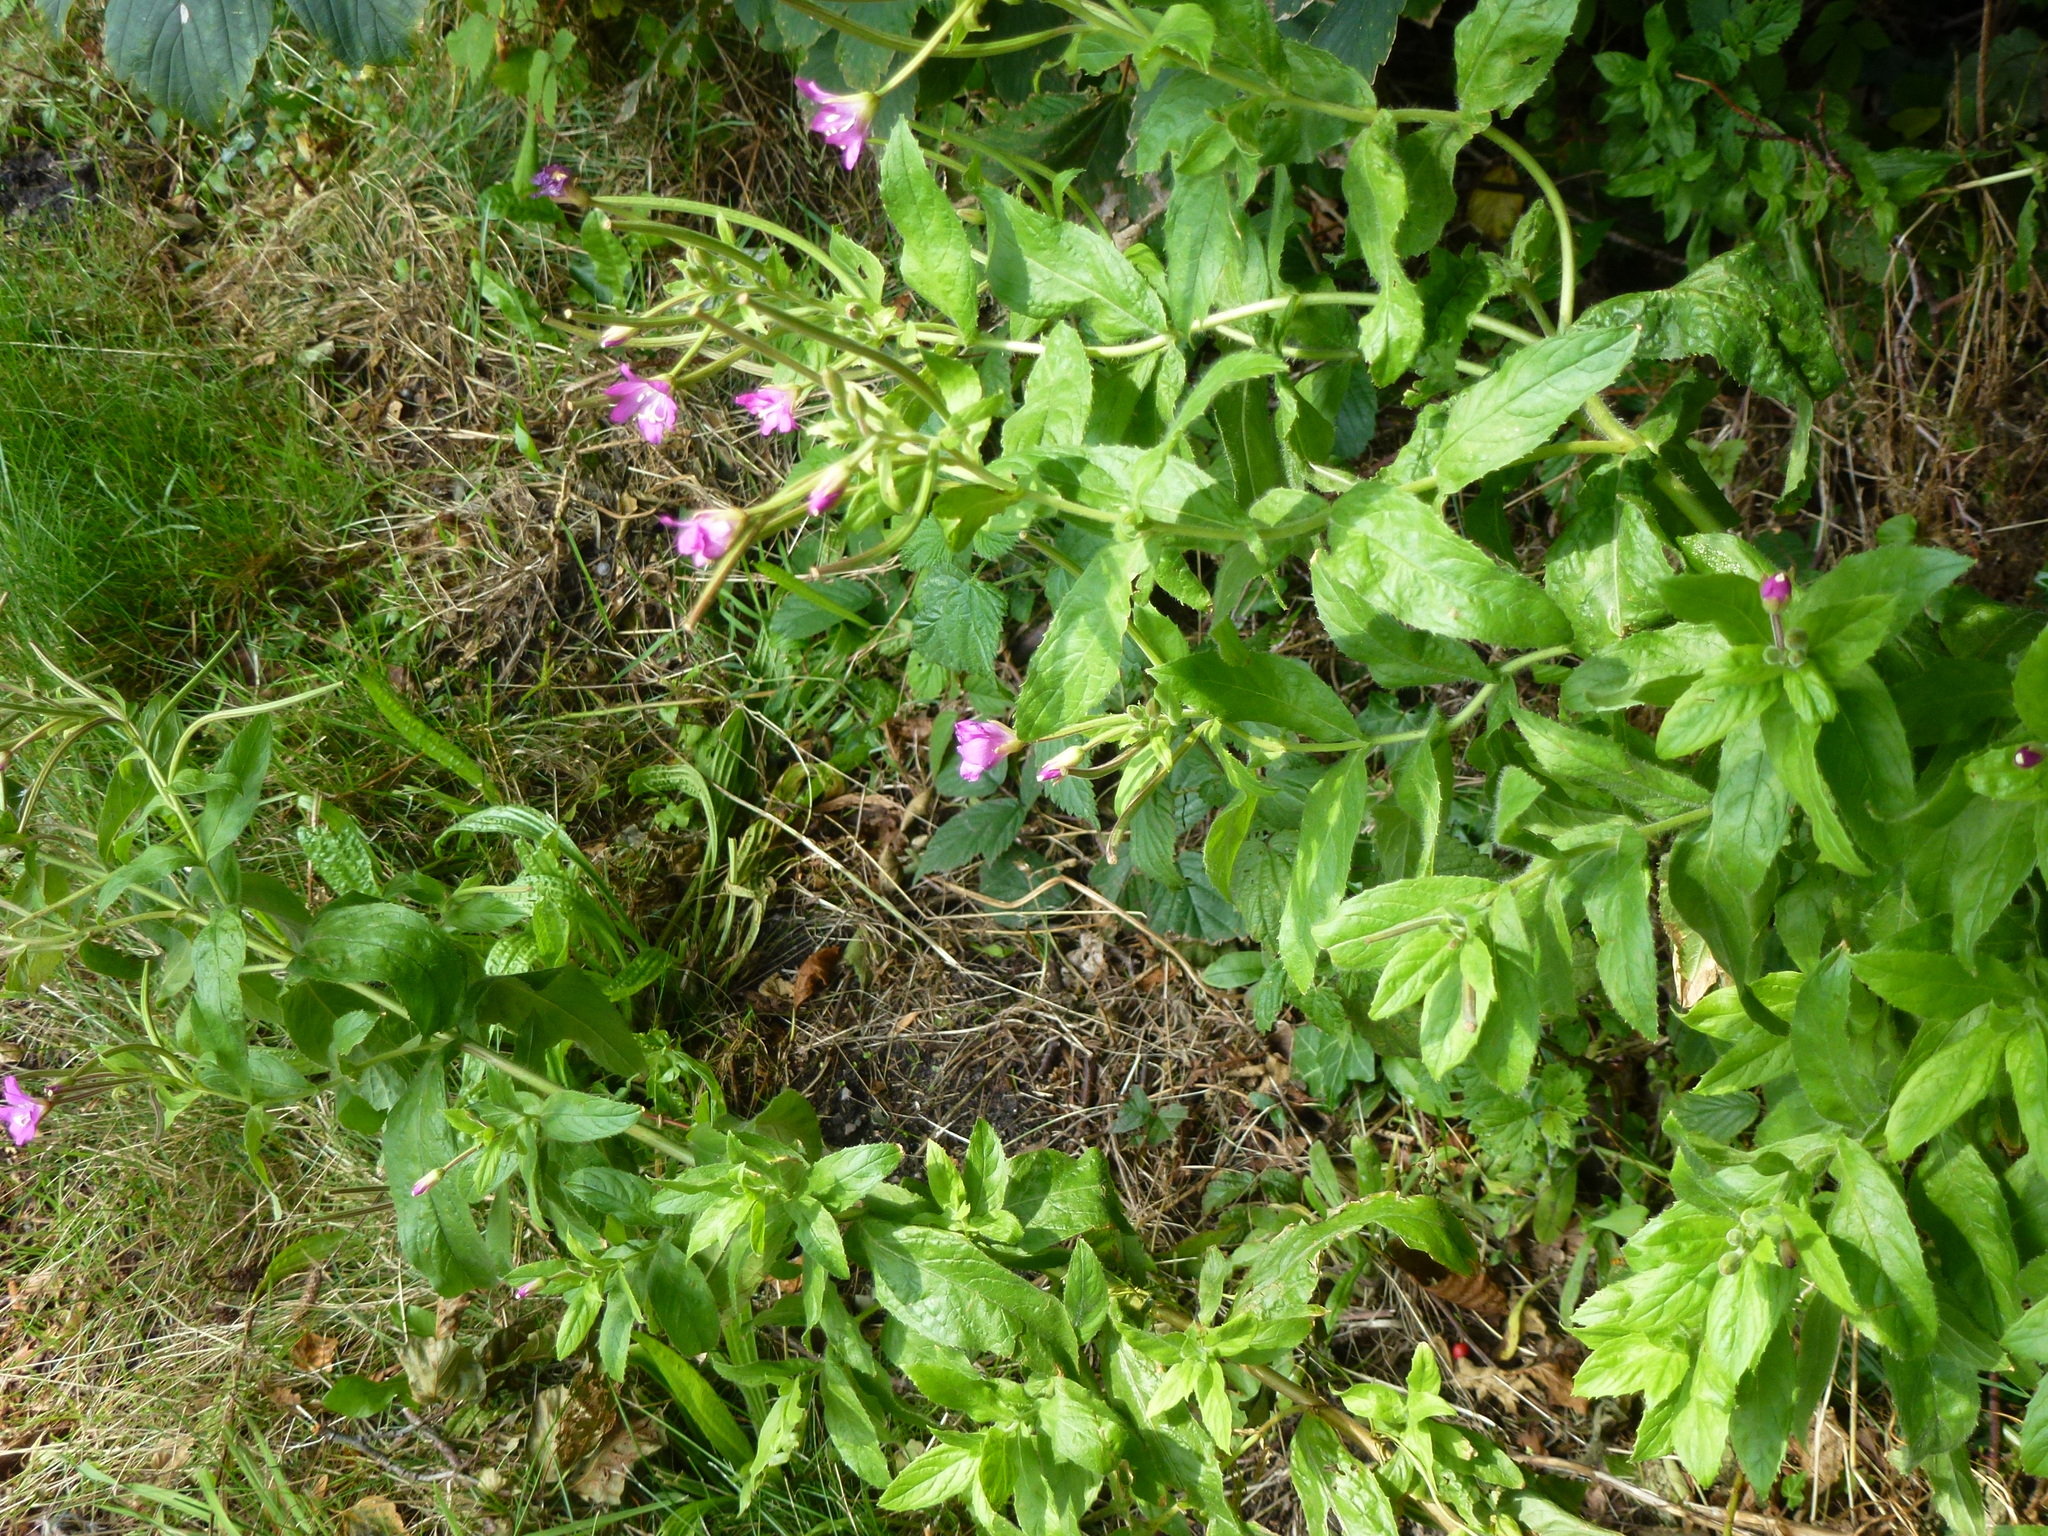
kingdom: Plantae
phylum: Tracheophyta
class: Magnoliopsida
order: Myrtales
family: Onagraceae
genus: Epilobium
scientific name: Epilobium hirsutum
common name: Great willowherb
